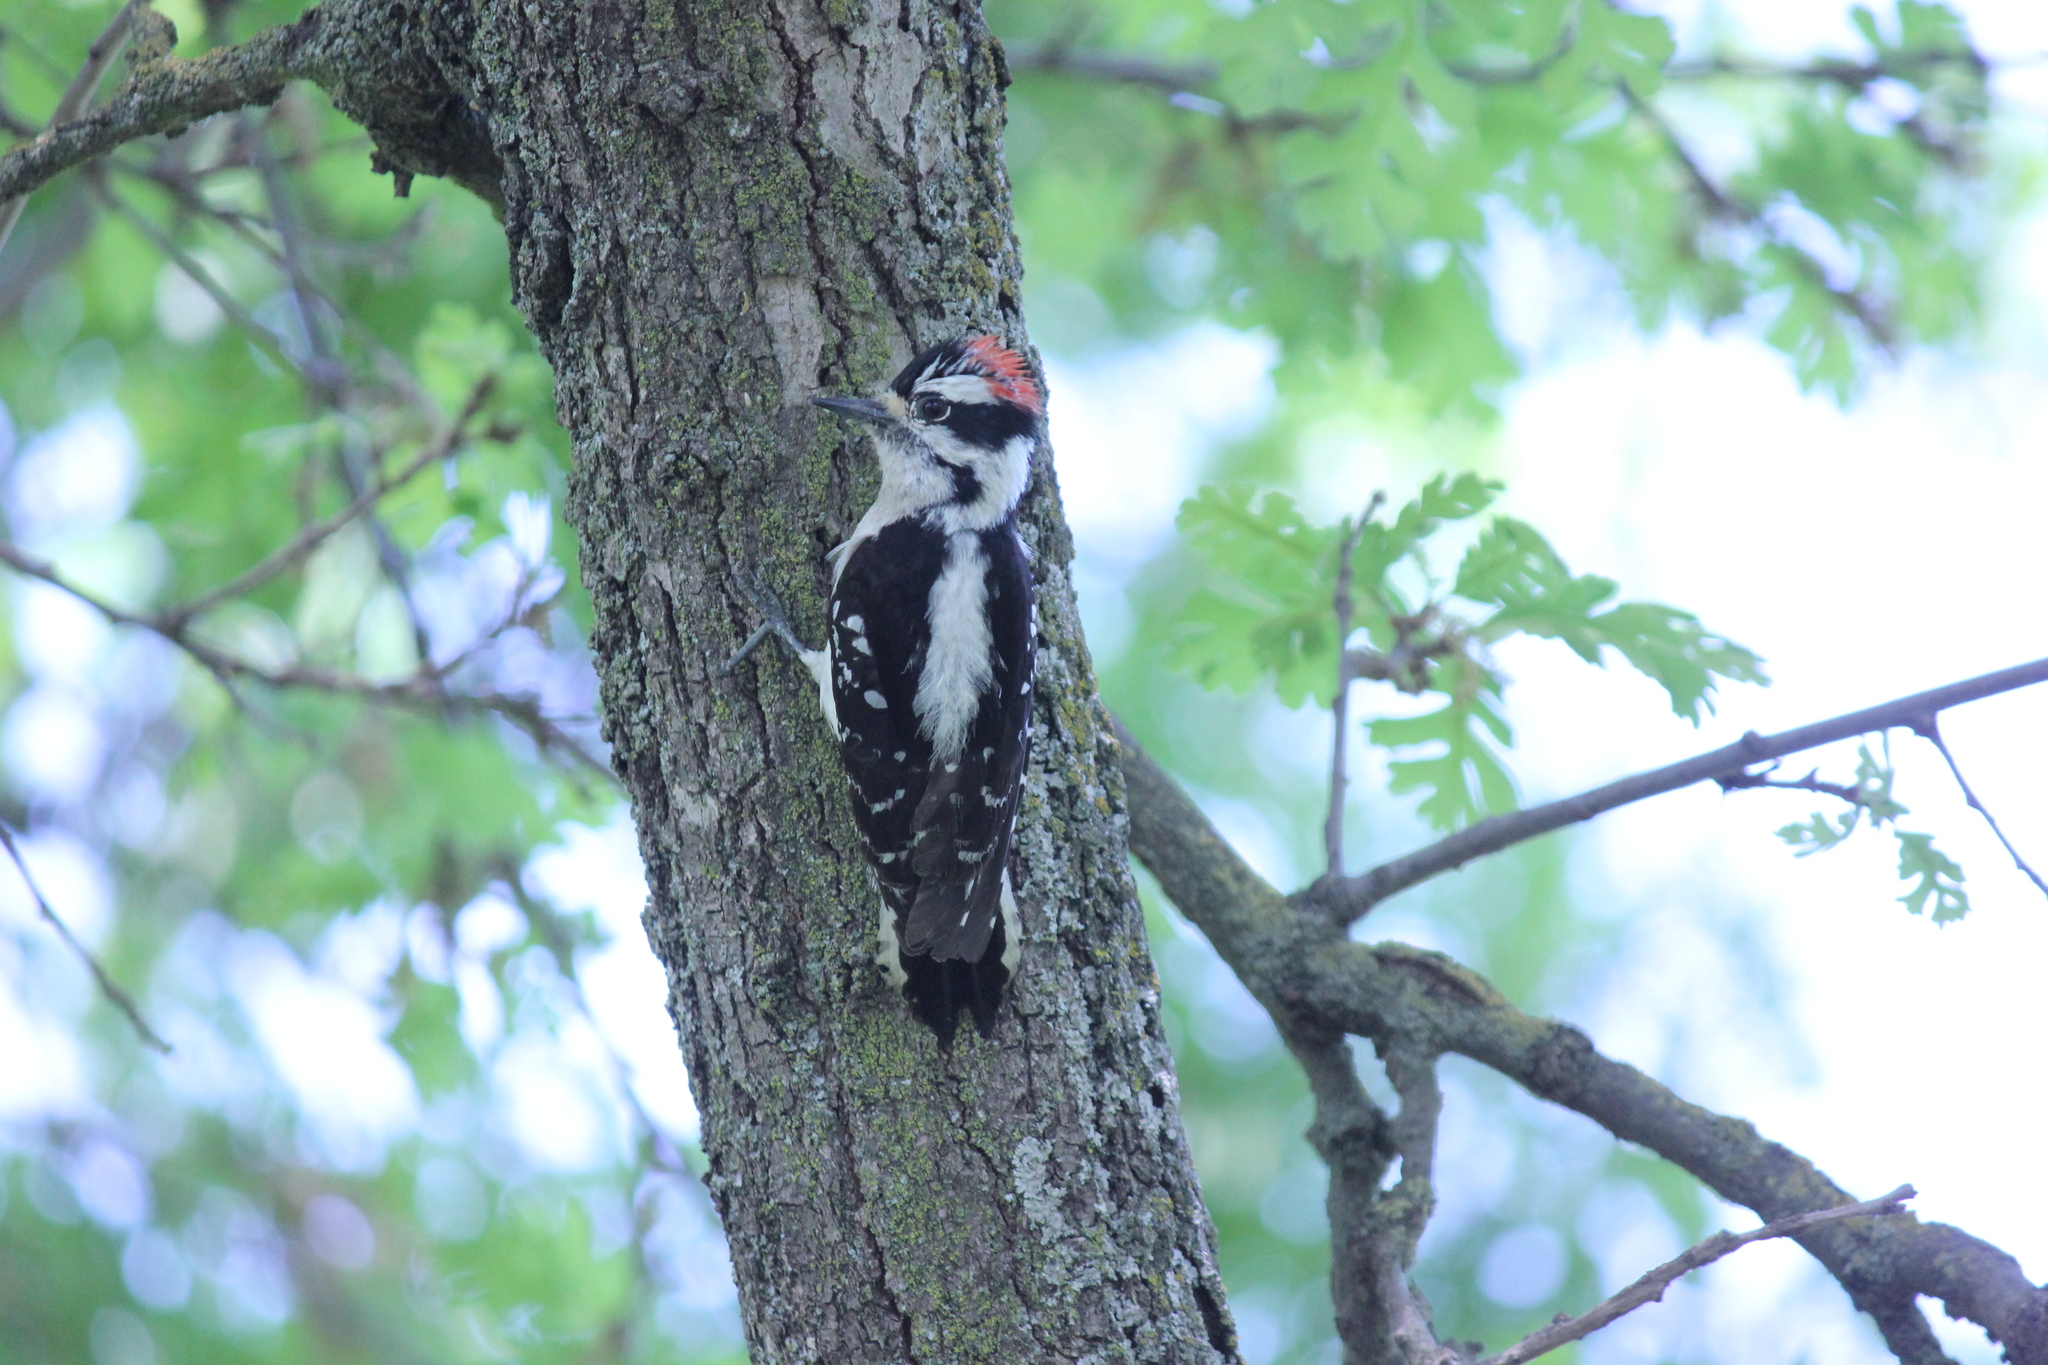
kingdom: Animalia
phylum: Chordata
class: Aves
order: Piciformes
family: Picidae
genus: Dryobates
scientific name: Dryobates pubescens
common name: Downy woodpecker
